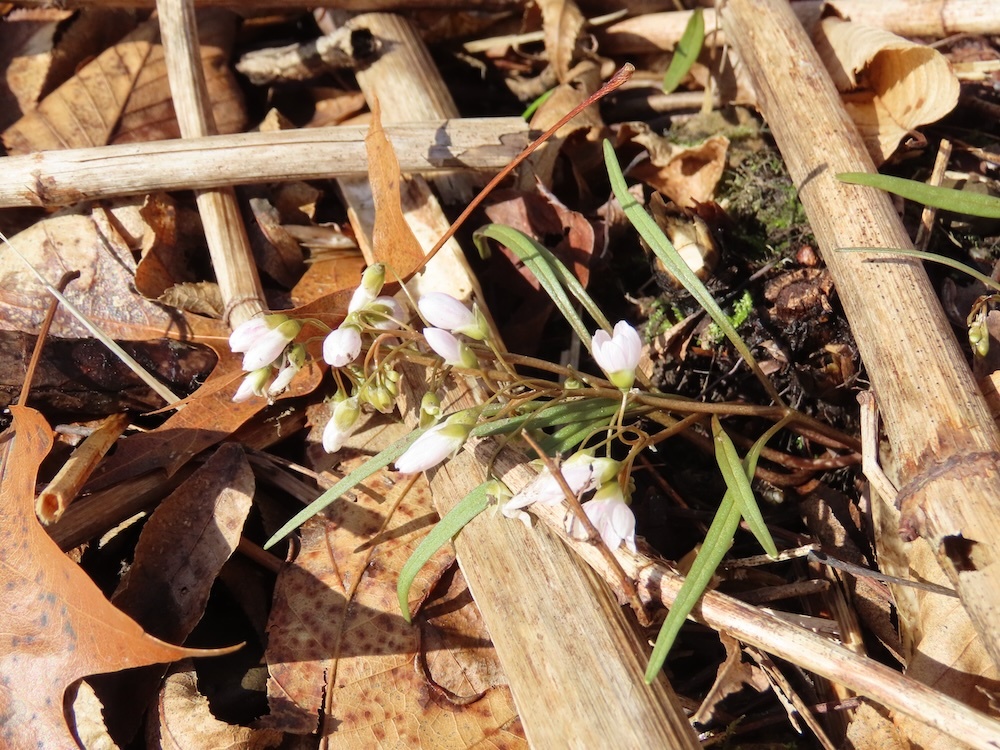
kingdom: Plantae
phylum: Tracheophyta
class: Magnoliopsida
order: Caryophyllales
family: Montiaceae
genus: Claytonia
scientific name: Claytonia virginica
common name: Virginia springbeauty
